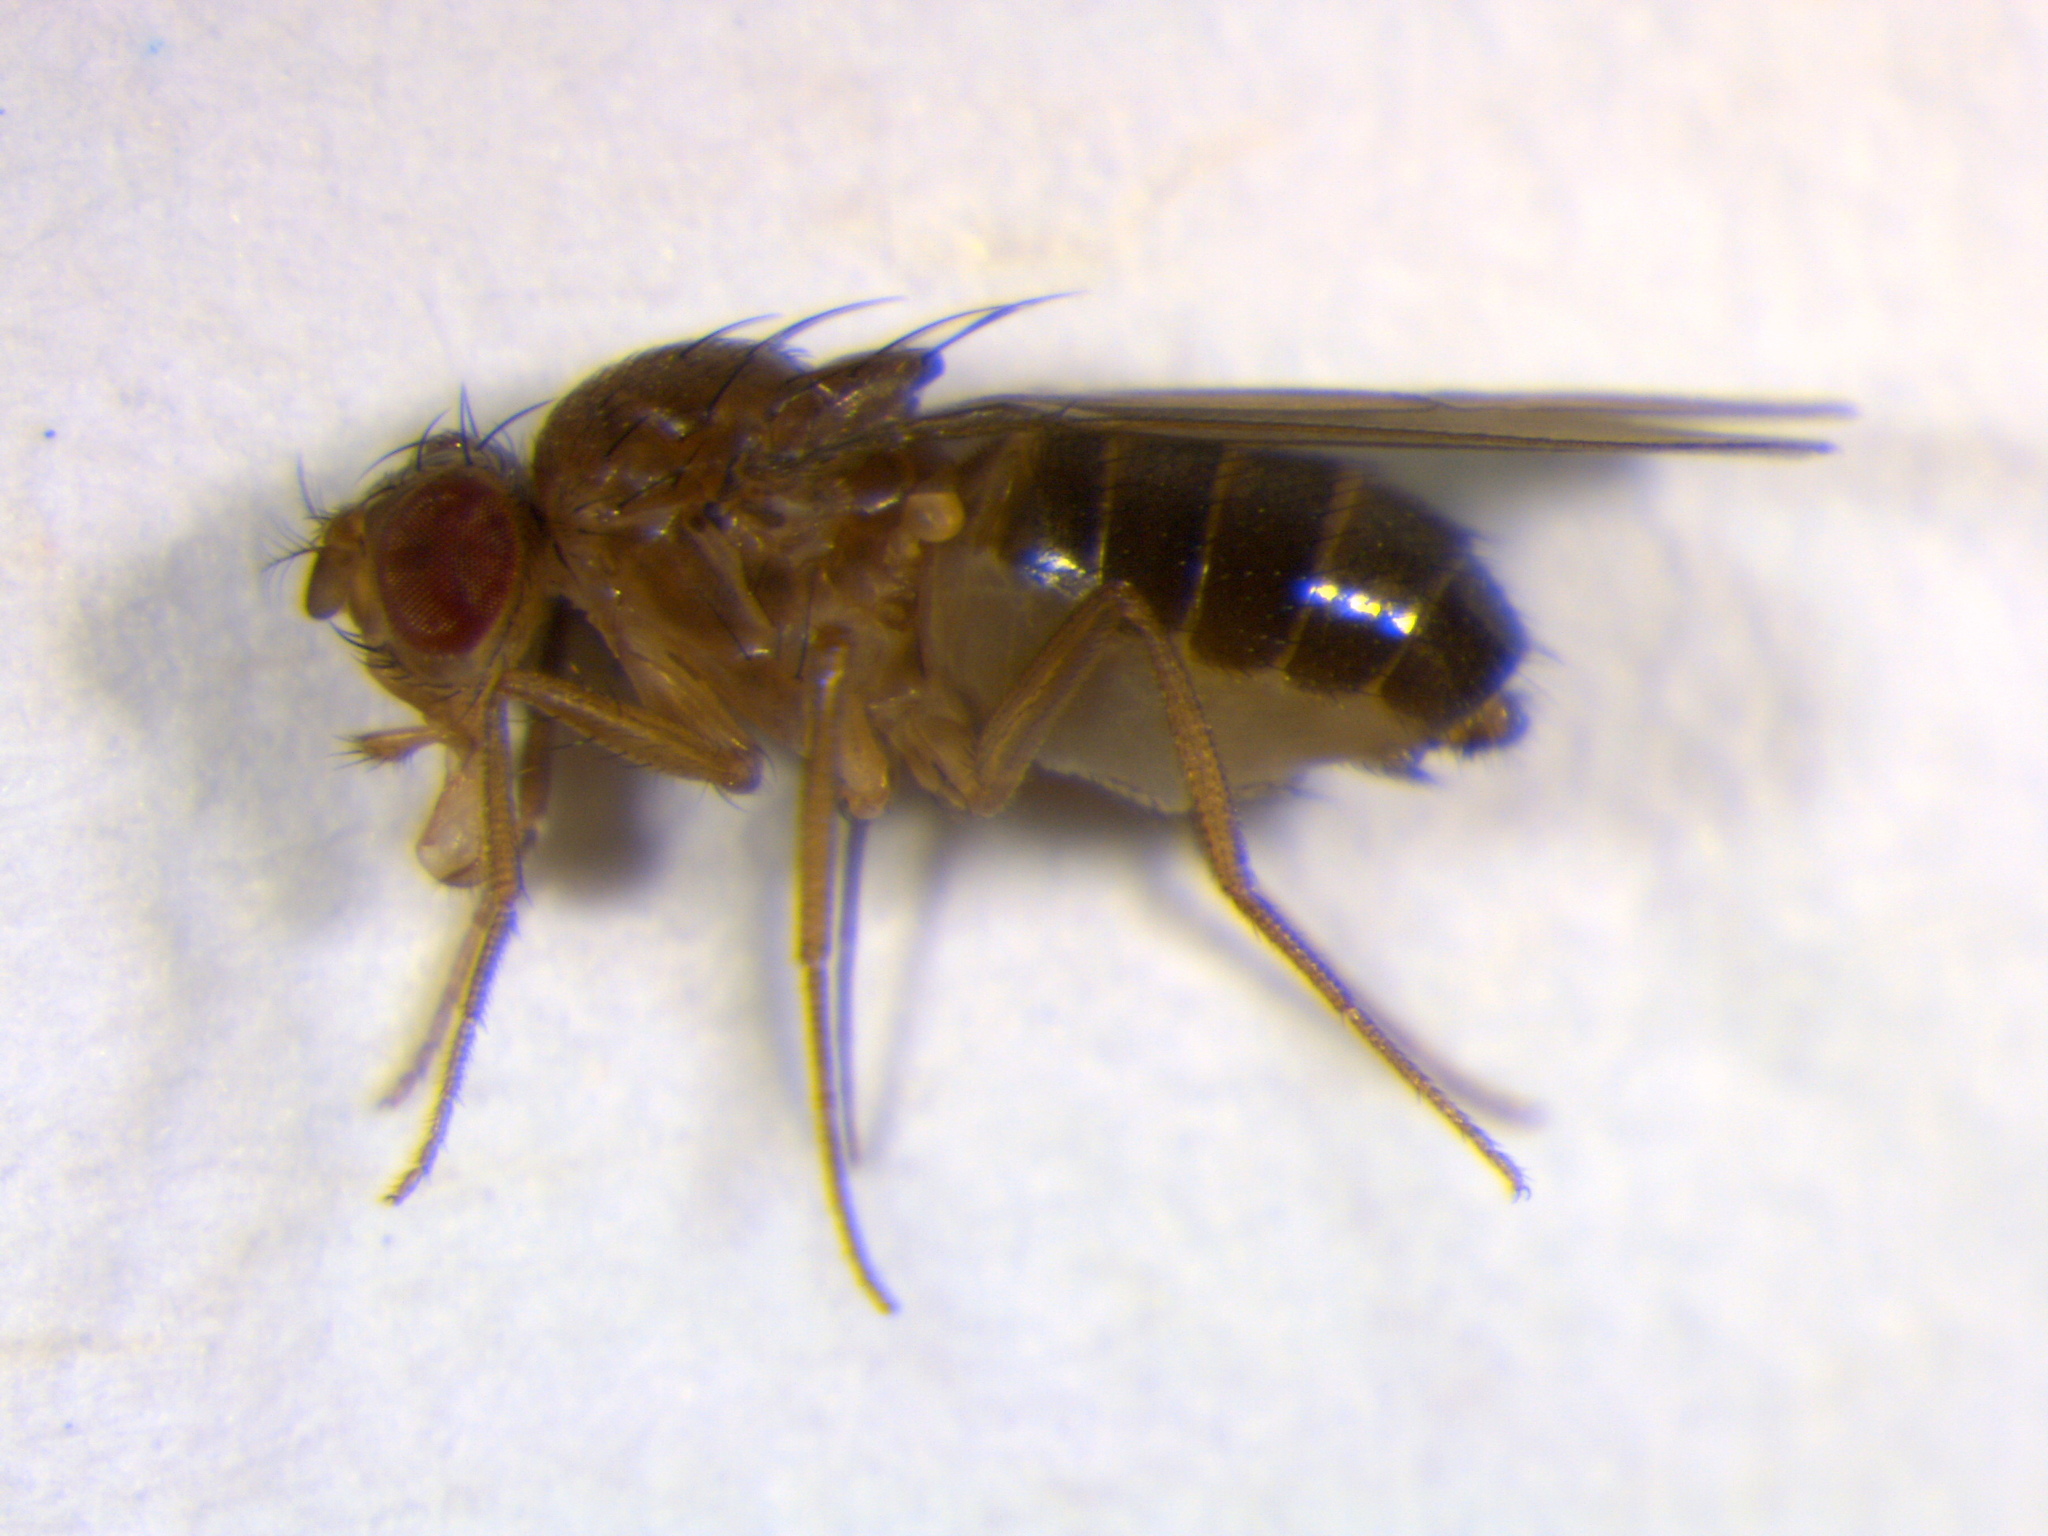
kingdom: Animalia
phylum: Arthropoda
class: Insecta
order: Diptera
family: Drosophilidae
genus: Drosophila
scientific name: Drosophila funebris
